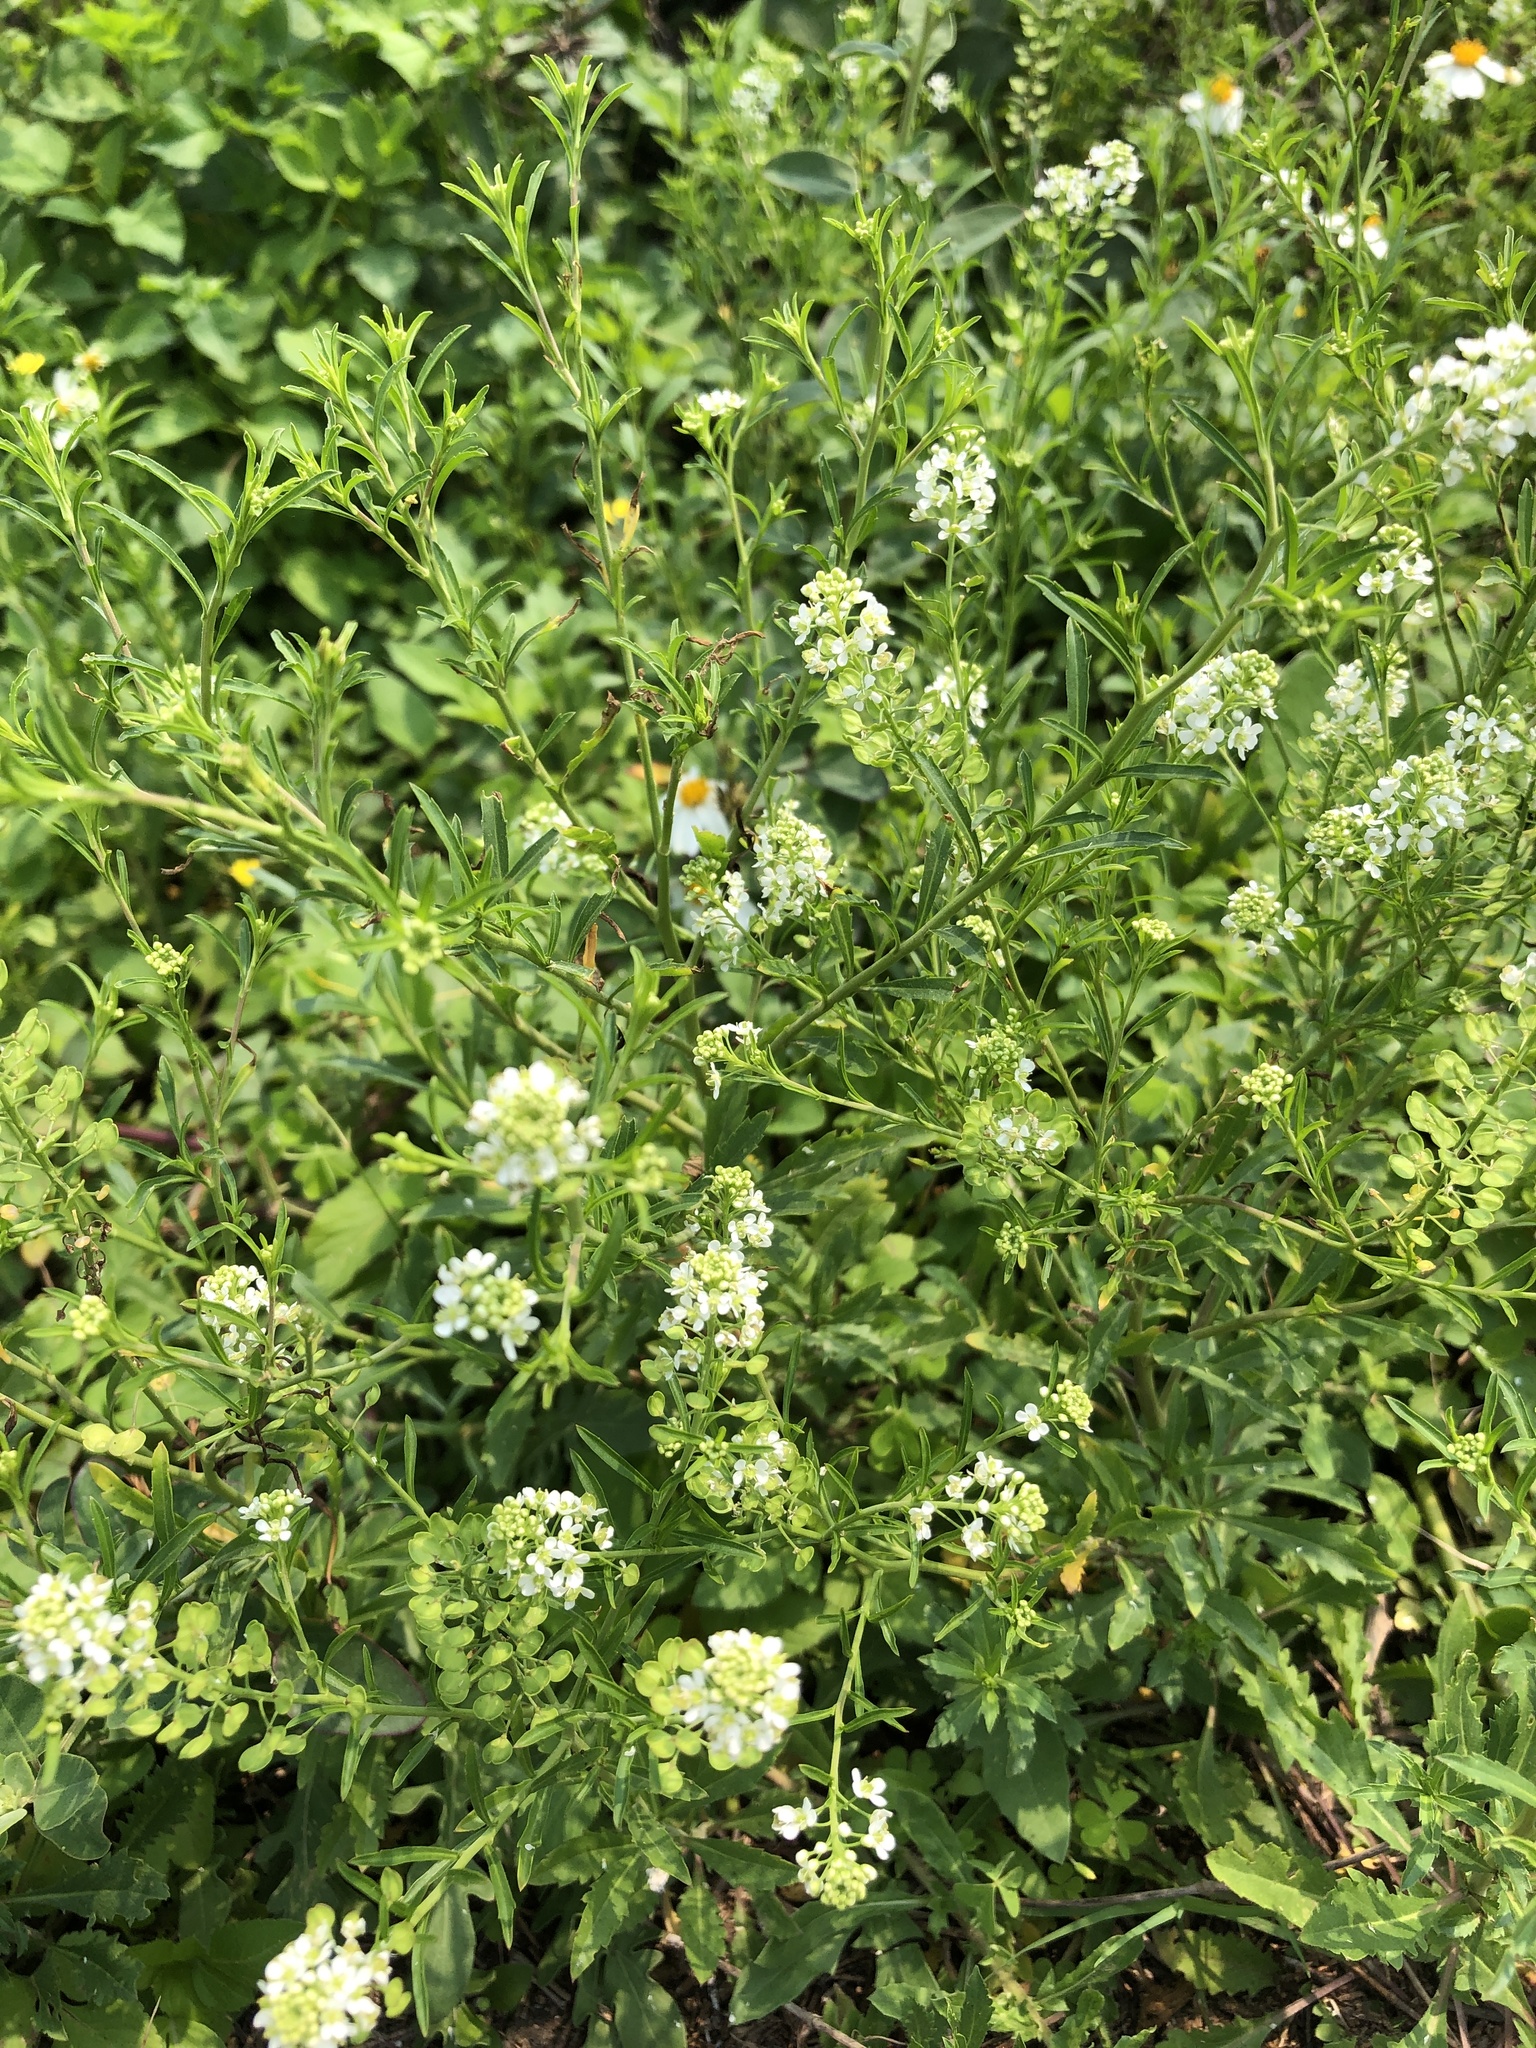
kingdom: Plantae
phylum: Tracheophyta
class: Magnoliopsida
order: Brassicales
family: Brassicaceae
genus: Lepidium
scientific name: Lepidium virginicum
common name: Least pepperwort
